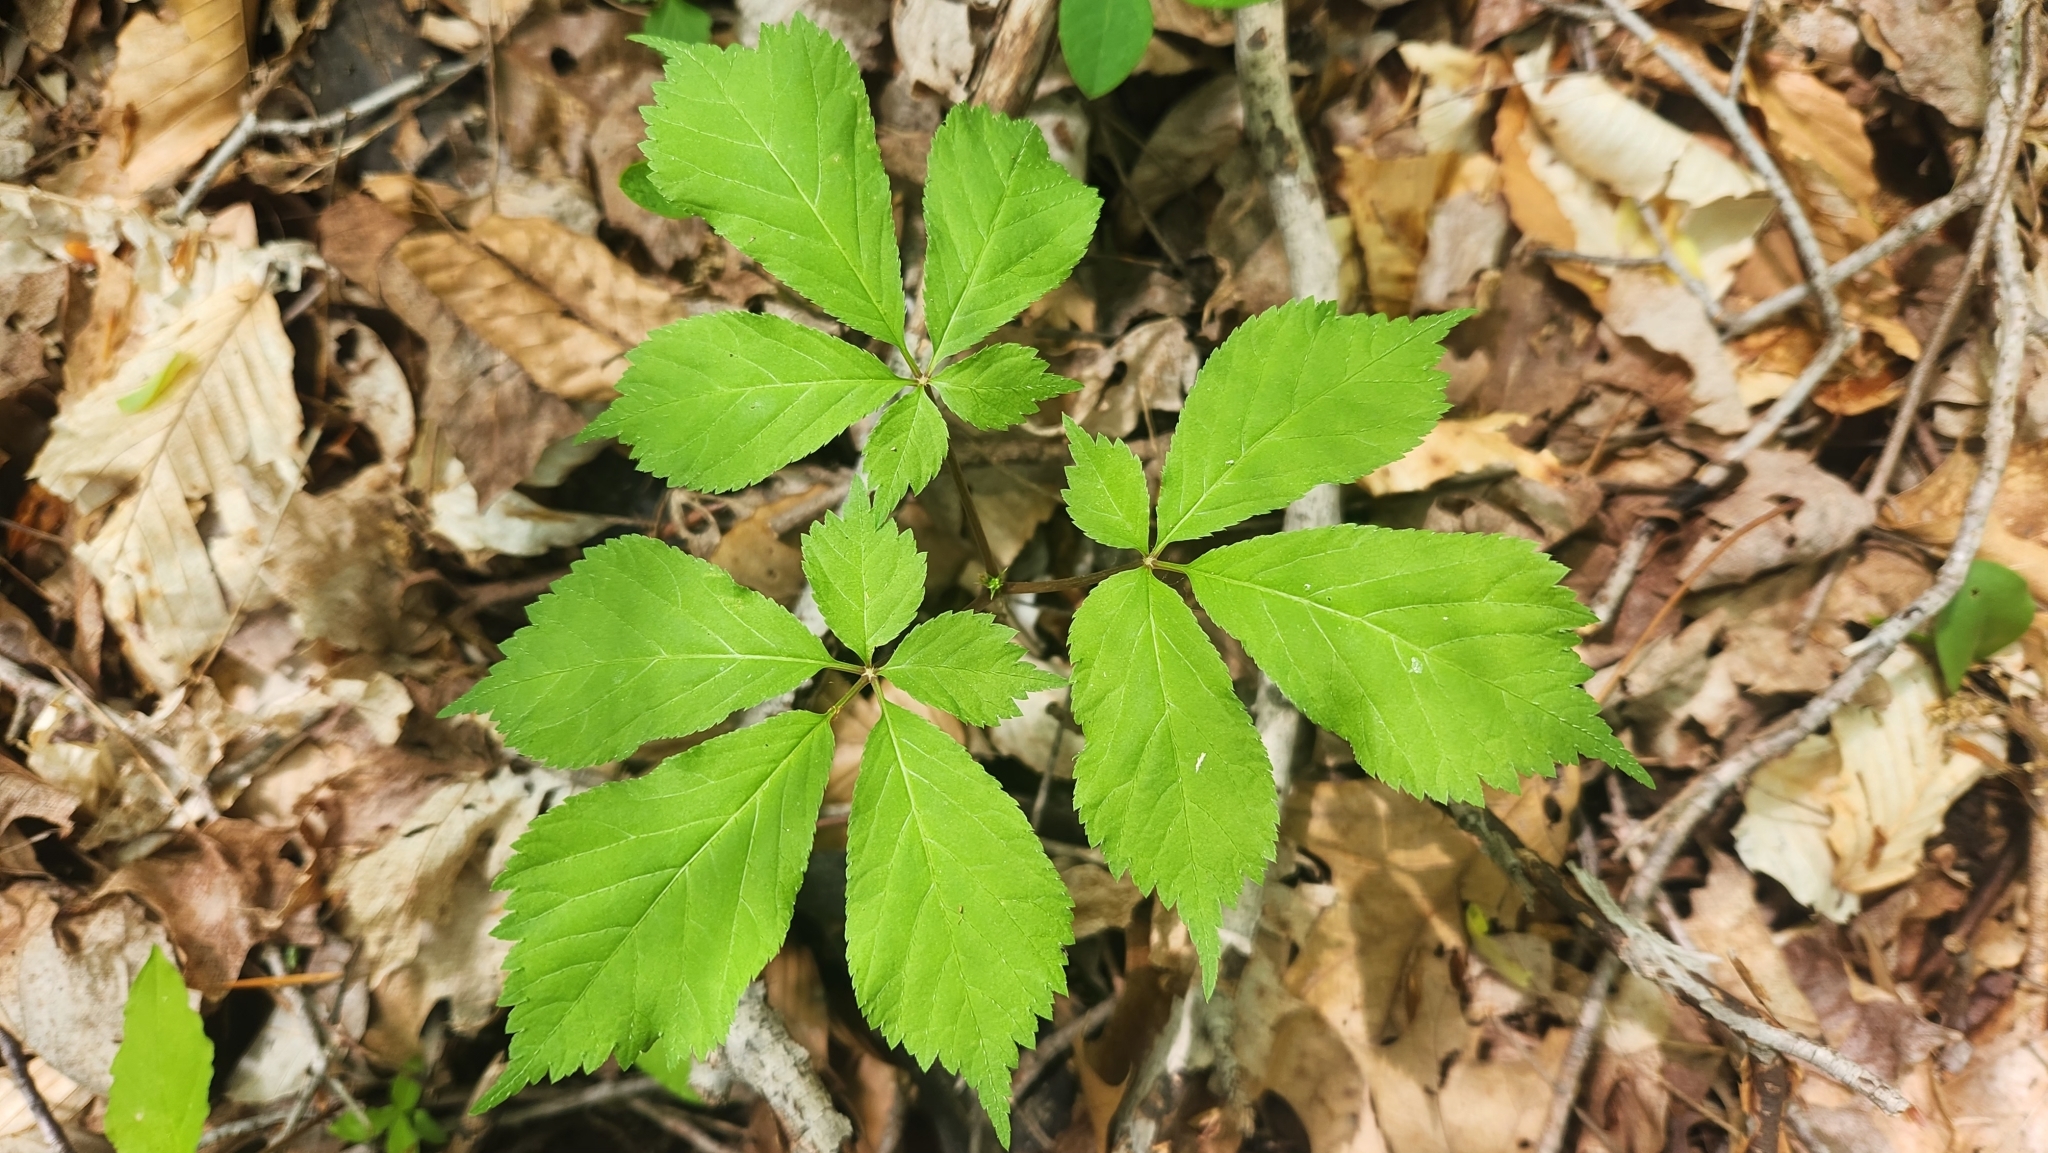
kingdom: Plantae
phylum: Tracheophyta
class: Magnoliopsida
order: Apiales
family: Araliaceae
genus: Panax
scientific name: Panax quinquefolius
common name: American ginseng
